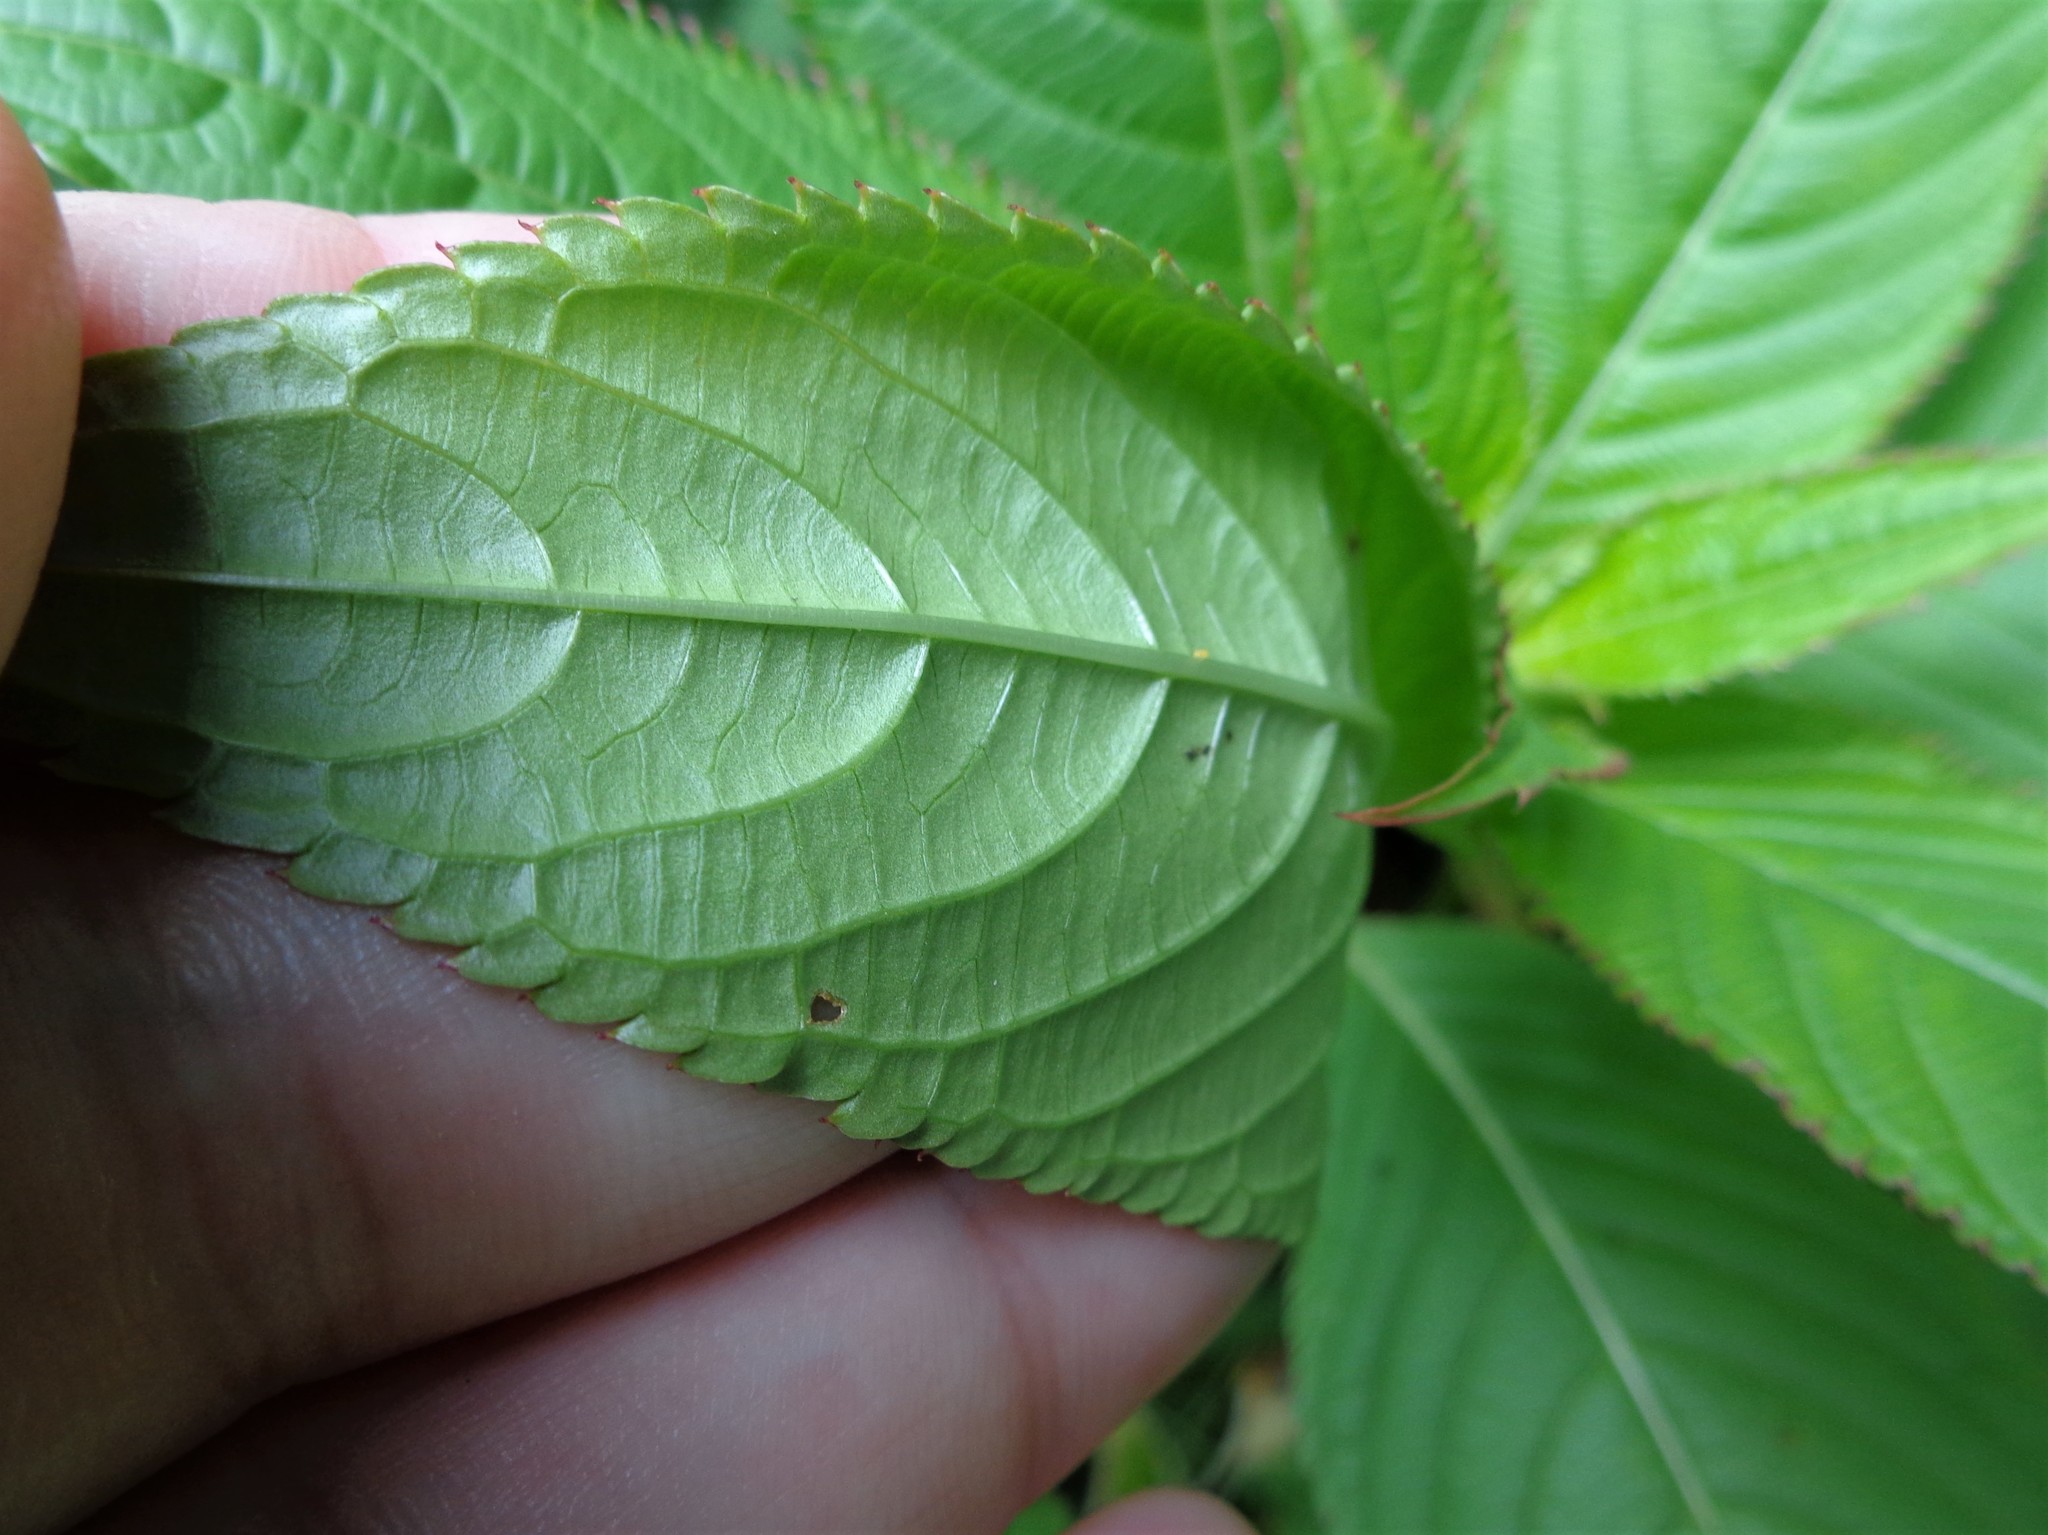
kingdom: Plantae
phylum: Tracheophyta
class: Magnoliopsida
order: Ericales
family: Balsaminaceae
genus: Impatiens
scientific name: Impatiens glandulifera
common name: Himalayan balsam
